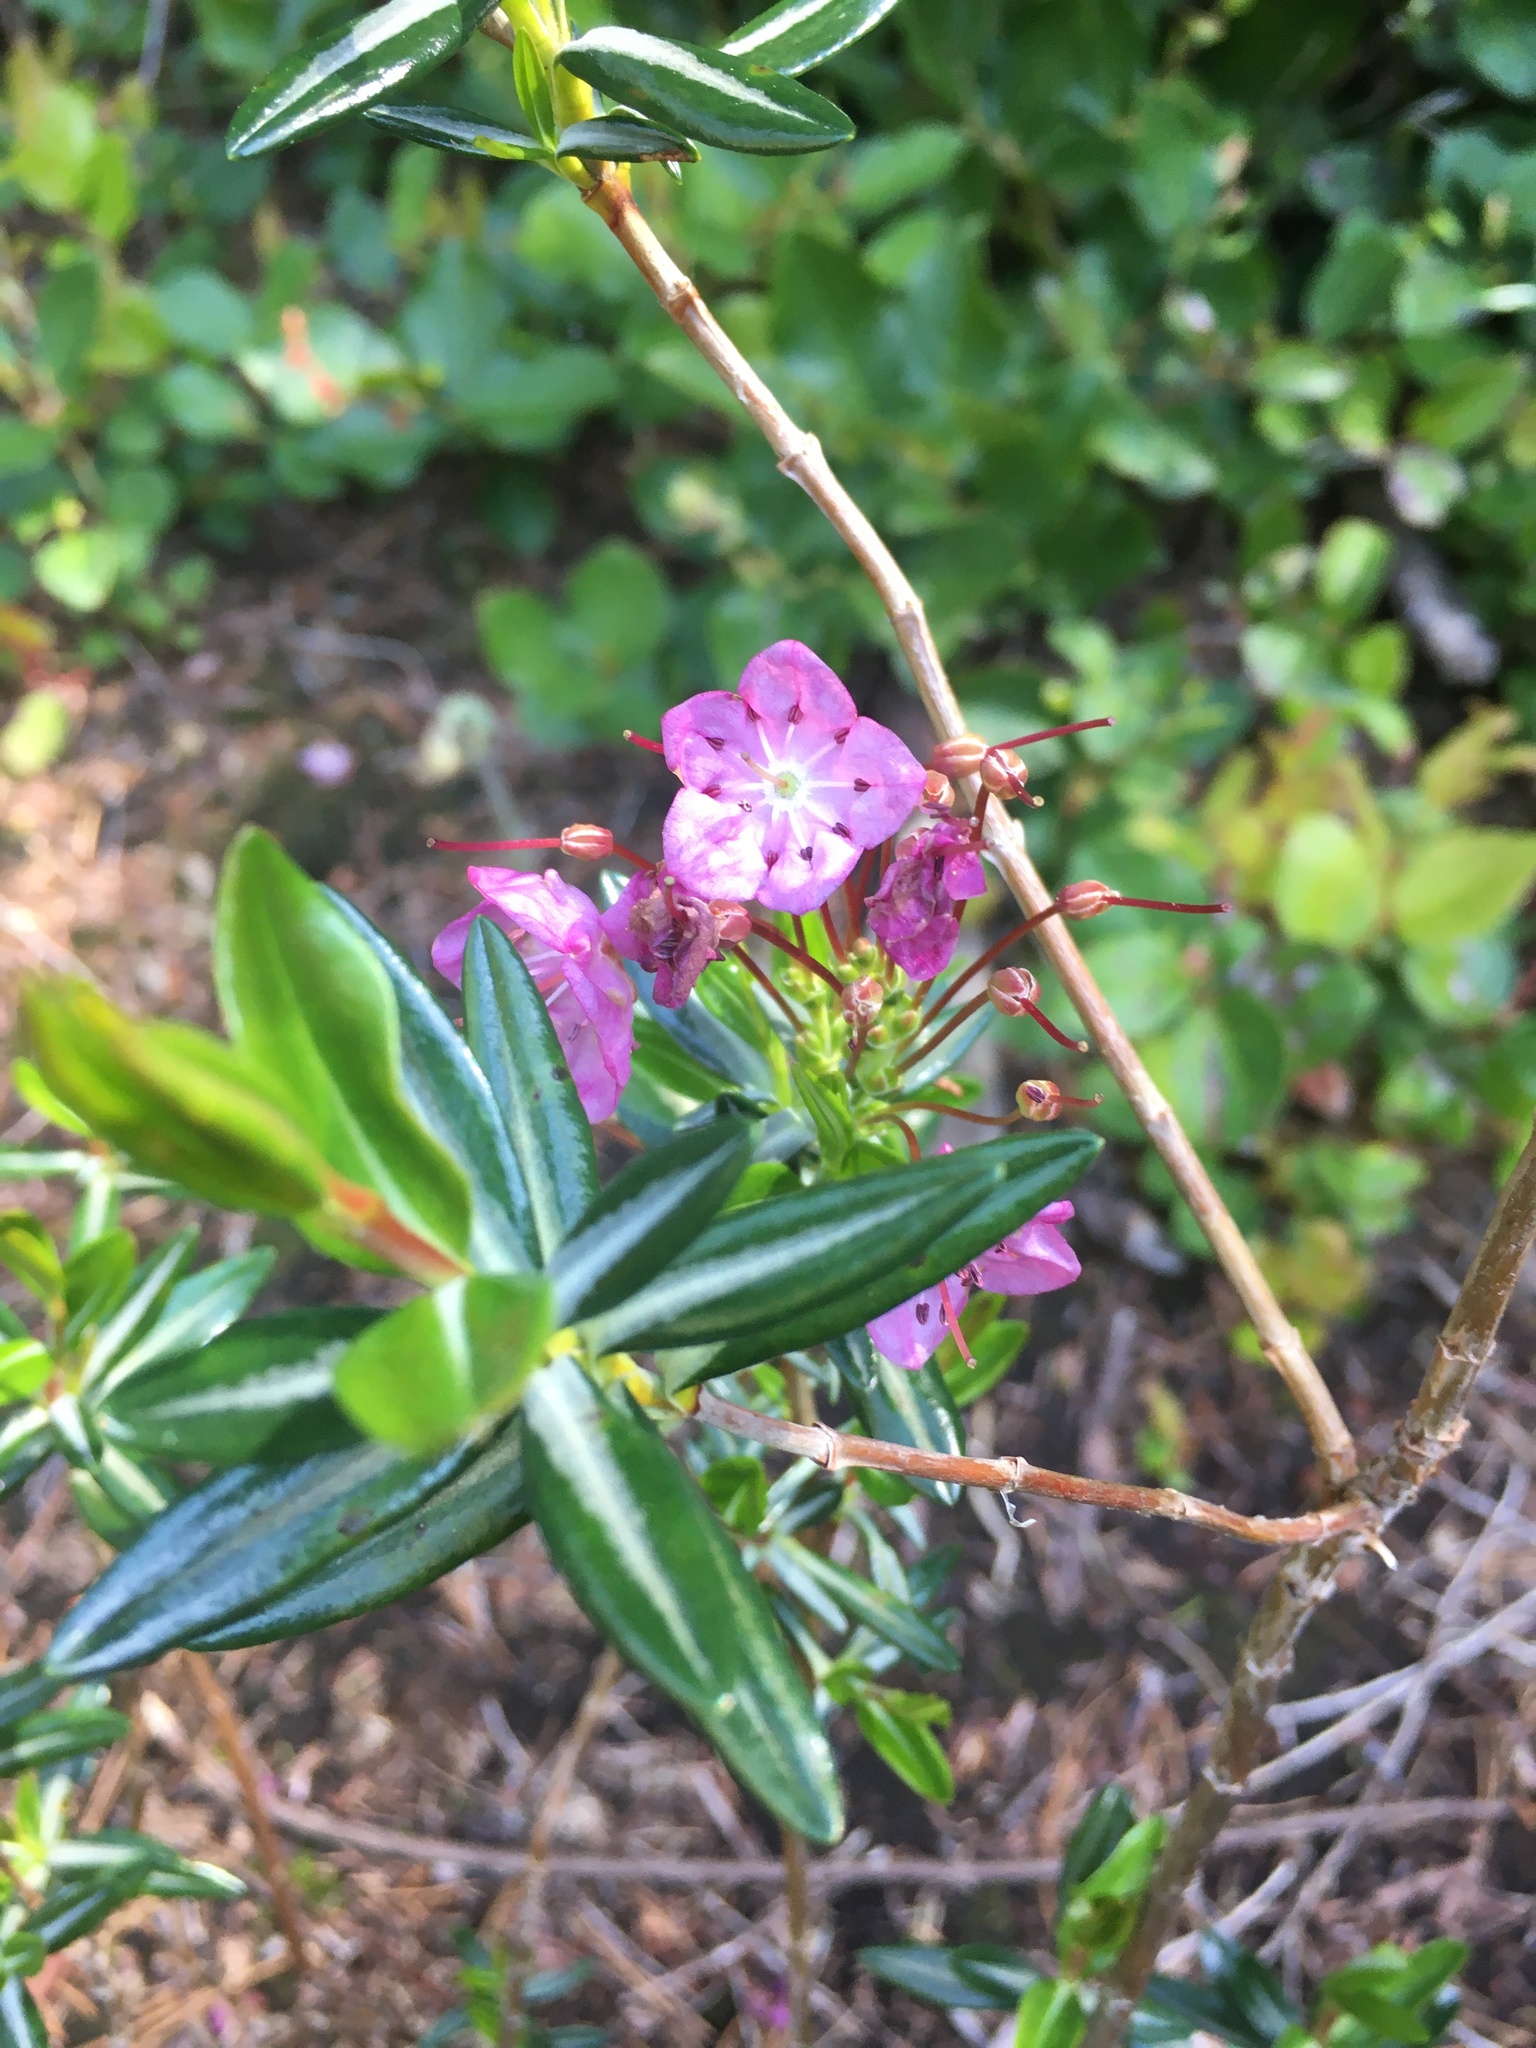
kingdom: Plantae
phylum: Tracheophyta
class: Magnoliopsida
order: Ericales
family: Ericaceae
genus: Kalmia
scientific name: Kalmia microphylla
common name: Alpine bog laurel
